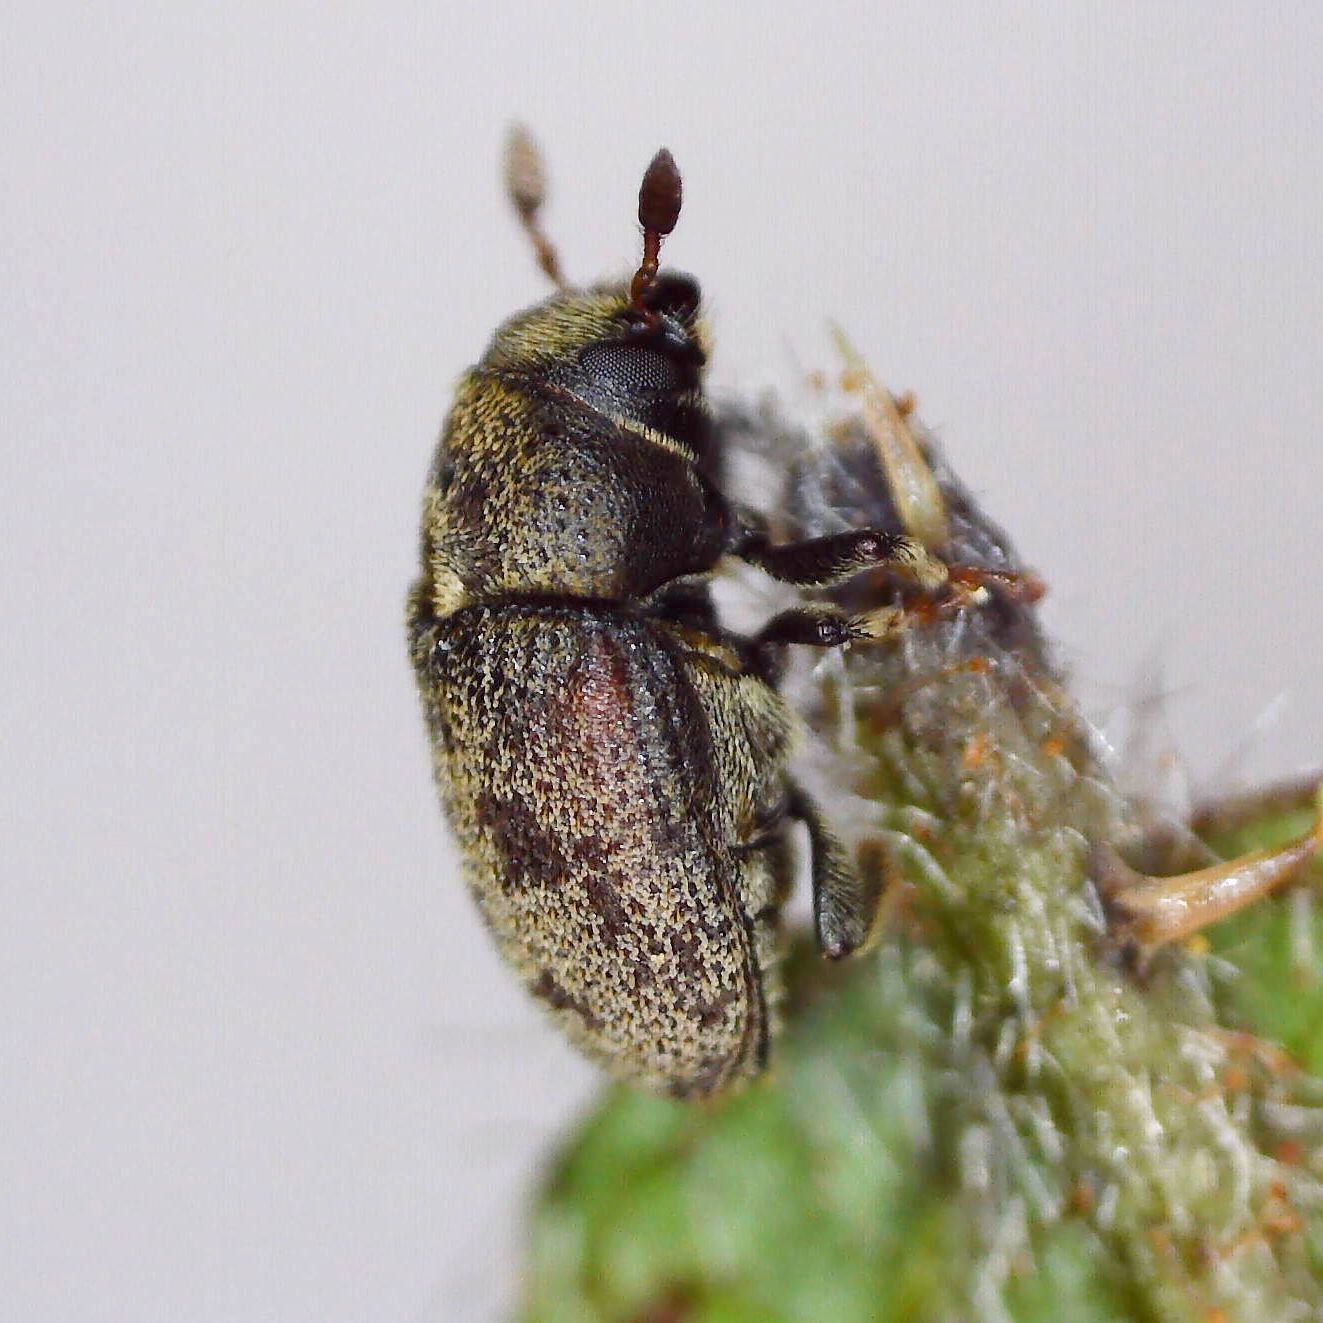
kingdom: Animalia
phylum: Arthropoda
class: Insecta
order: Coleoptera
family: Curculionidae
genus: Hylesinus
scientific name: Hylesinus varius
